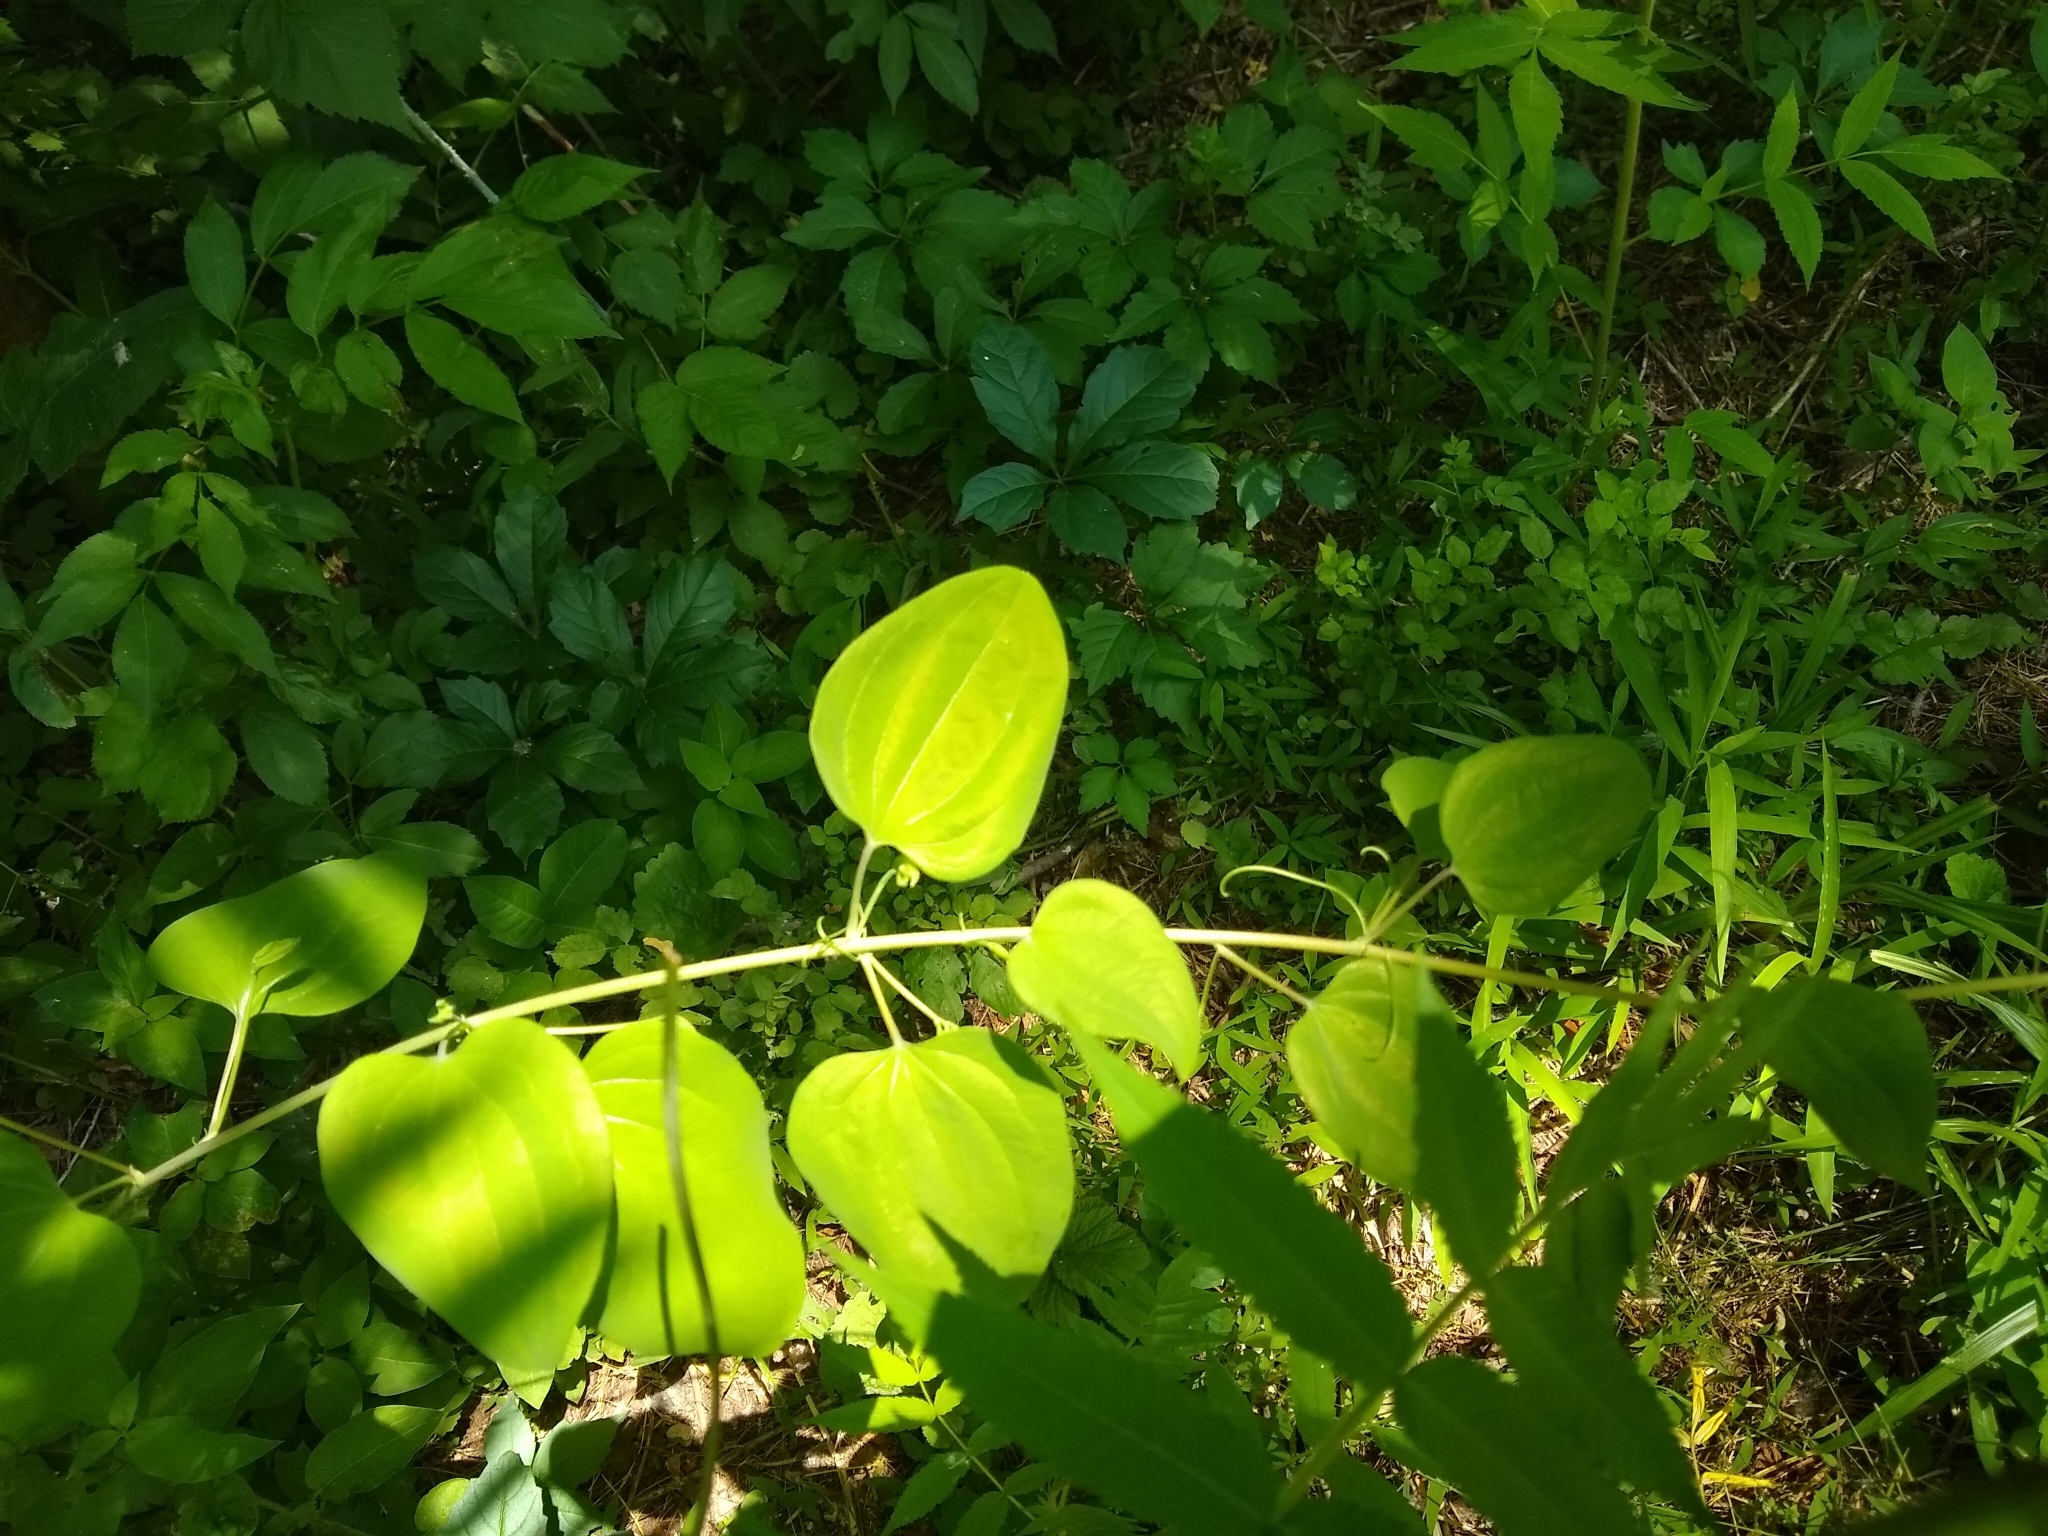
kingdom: Plantae
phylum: Tracheophyta
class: Liliopsida
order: Liliales
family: Smilacaceae
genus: Smilax
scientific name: Smilax herbacea
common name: Jacob's-ladder
